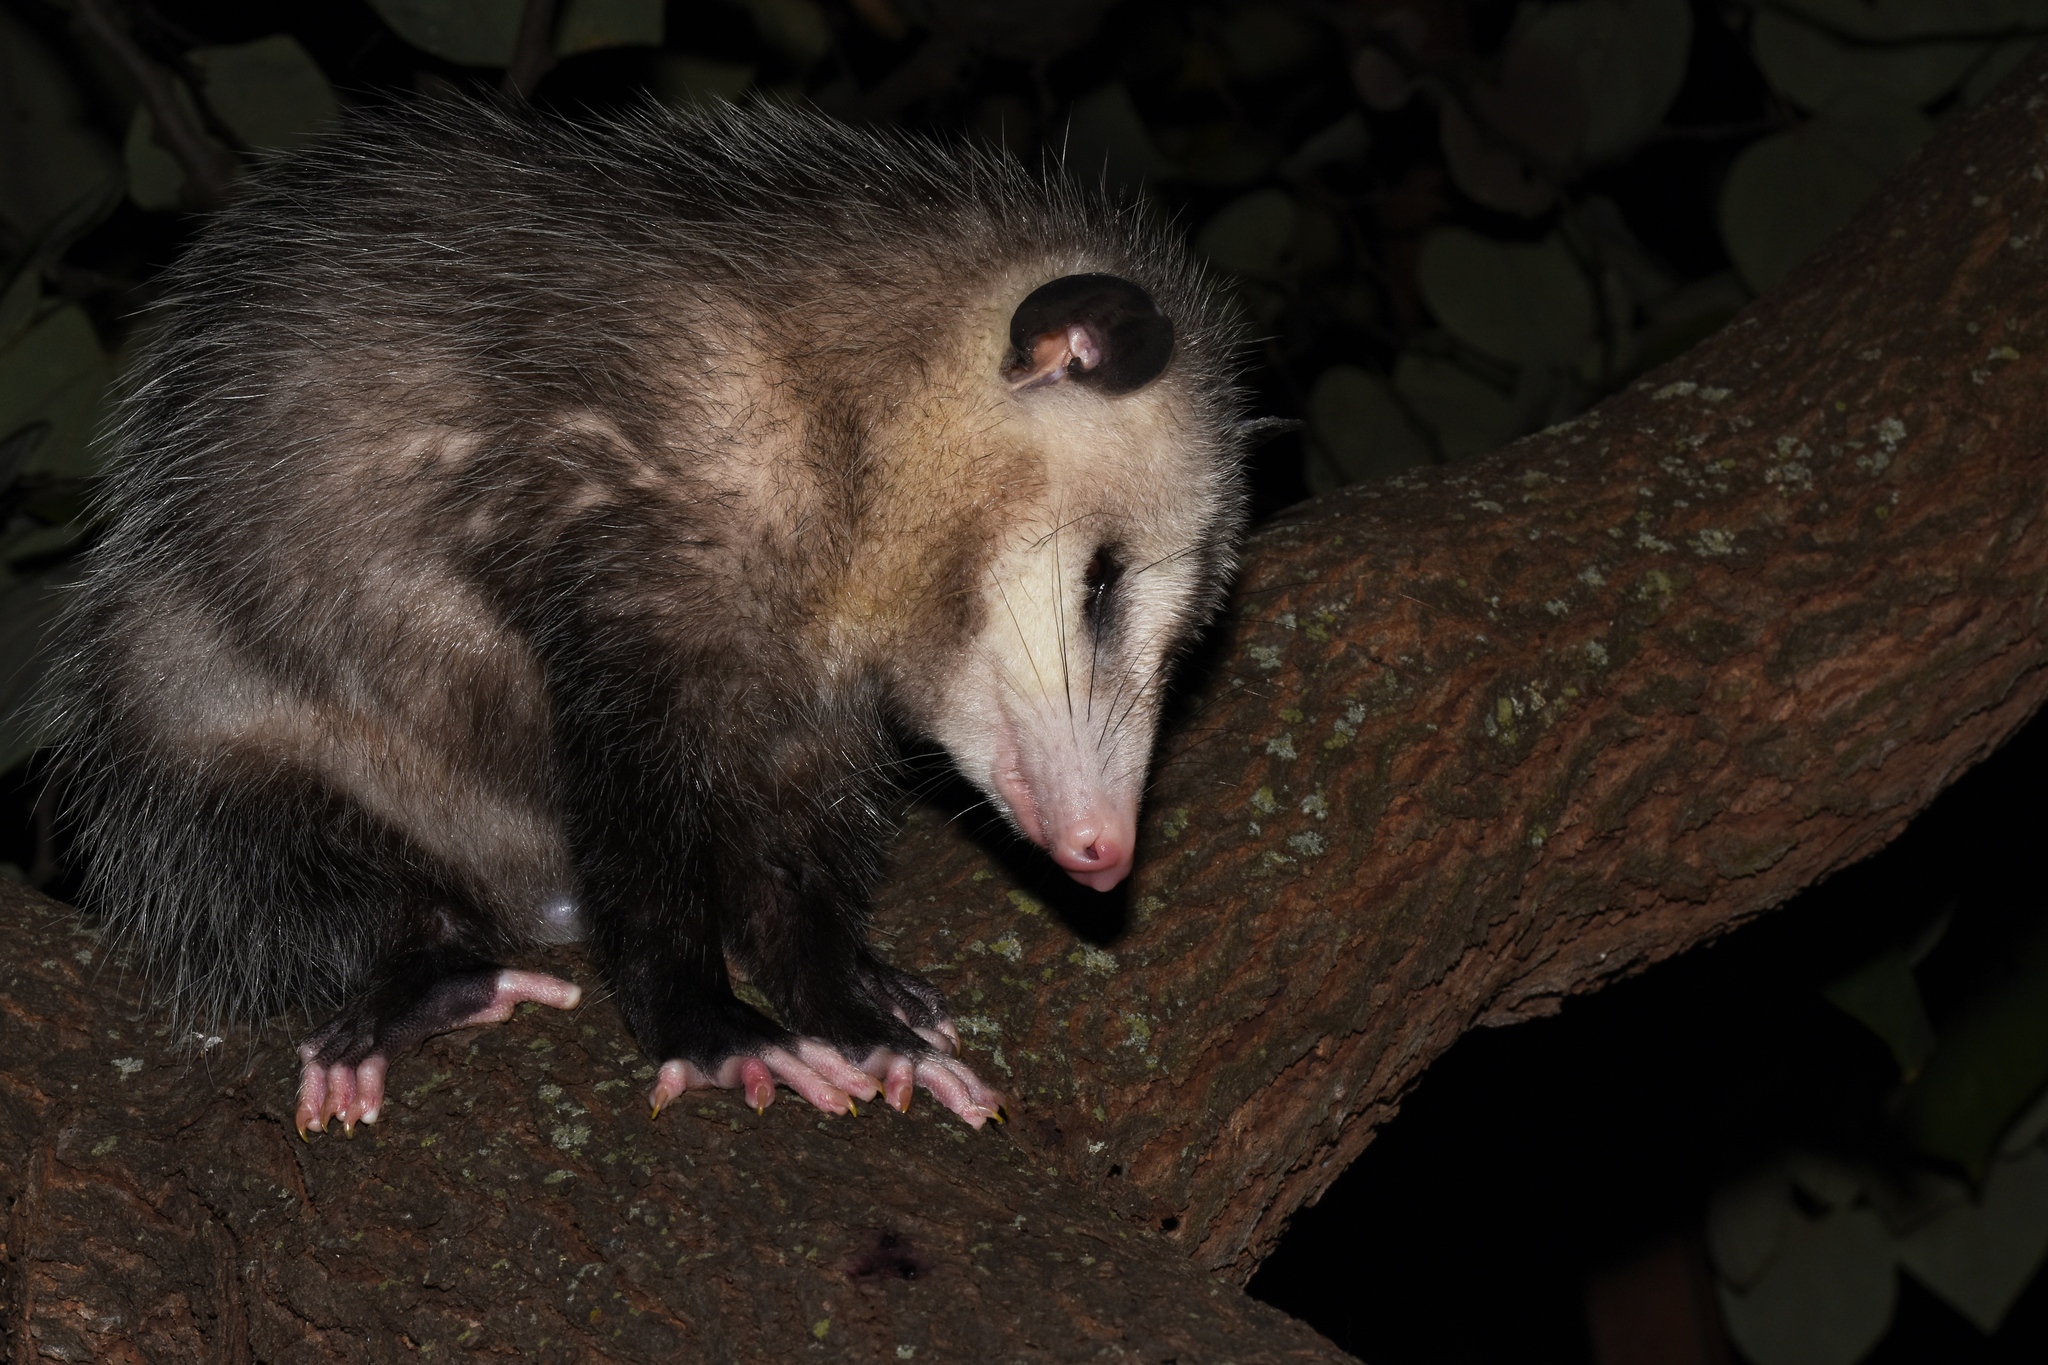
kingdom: Animalia
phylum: Chordata
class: Mammalia
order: Didelphimorphia
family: Didelphidae
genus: Didelphis
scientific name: Didelphis virginiana
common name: Virginia opossum
